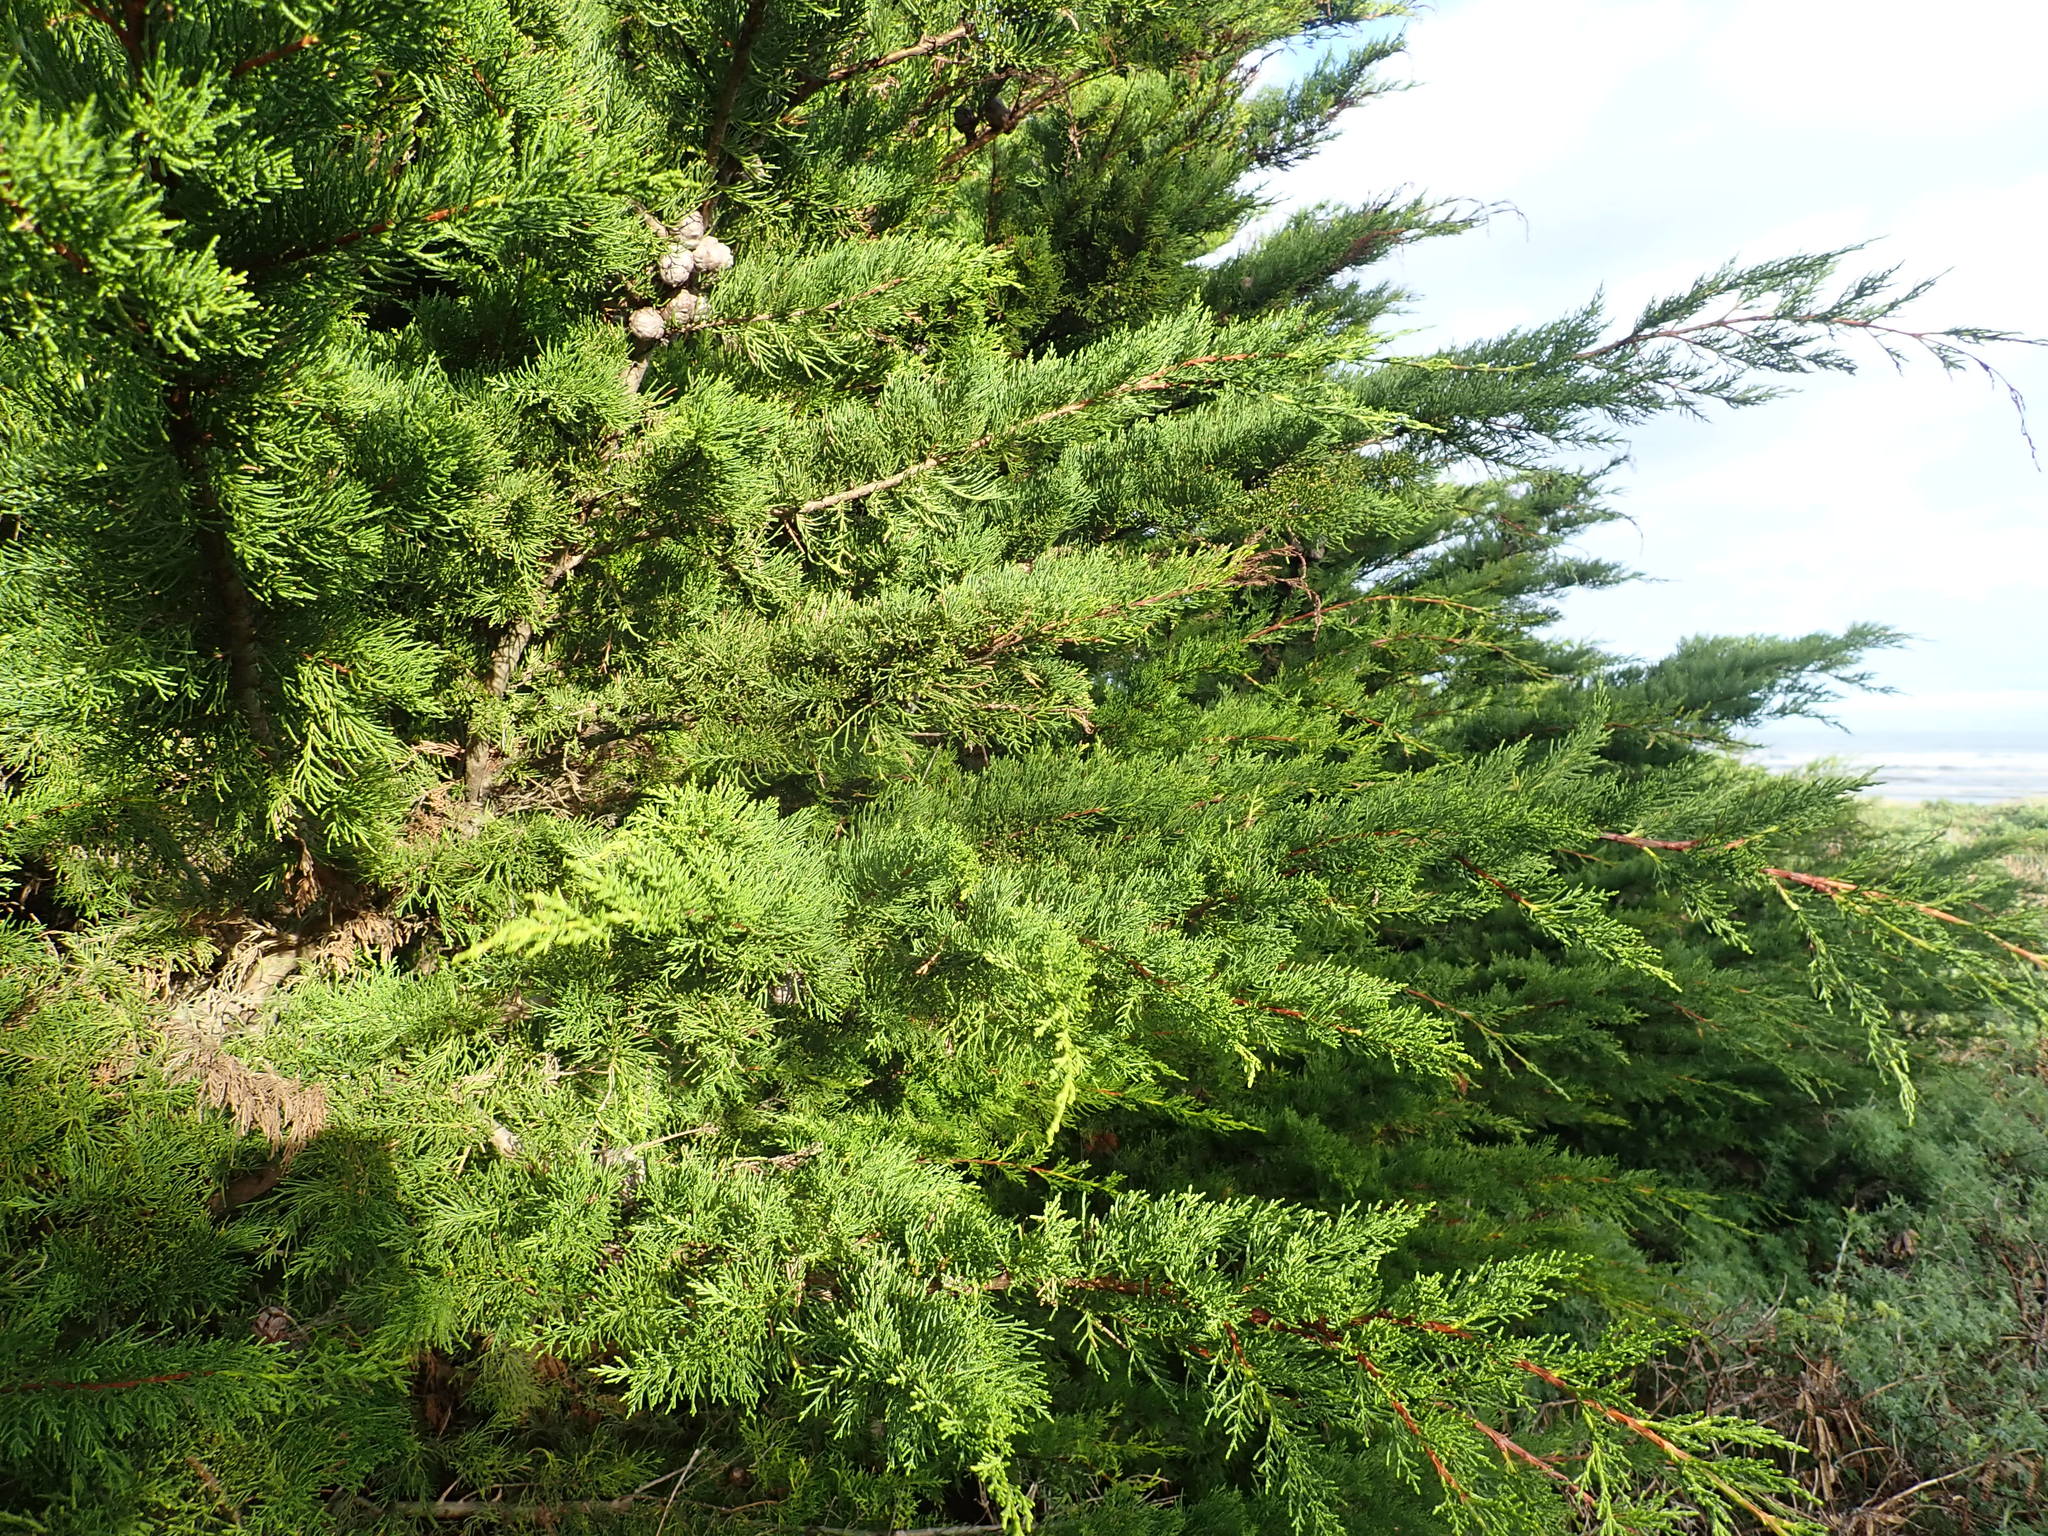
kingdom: Plantae
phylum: Tracheophyta
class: Pinopsida
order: Pinales
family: Cupressaceae
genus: Cupressus
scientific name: Cupressus macrocarpa
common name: Monterey cypress
